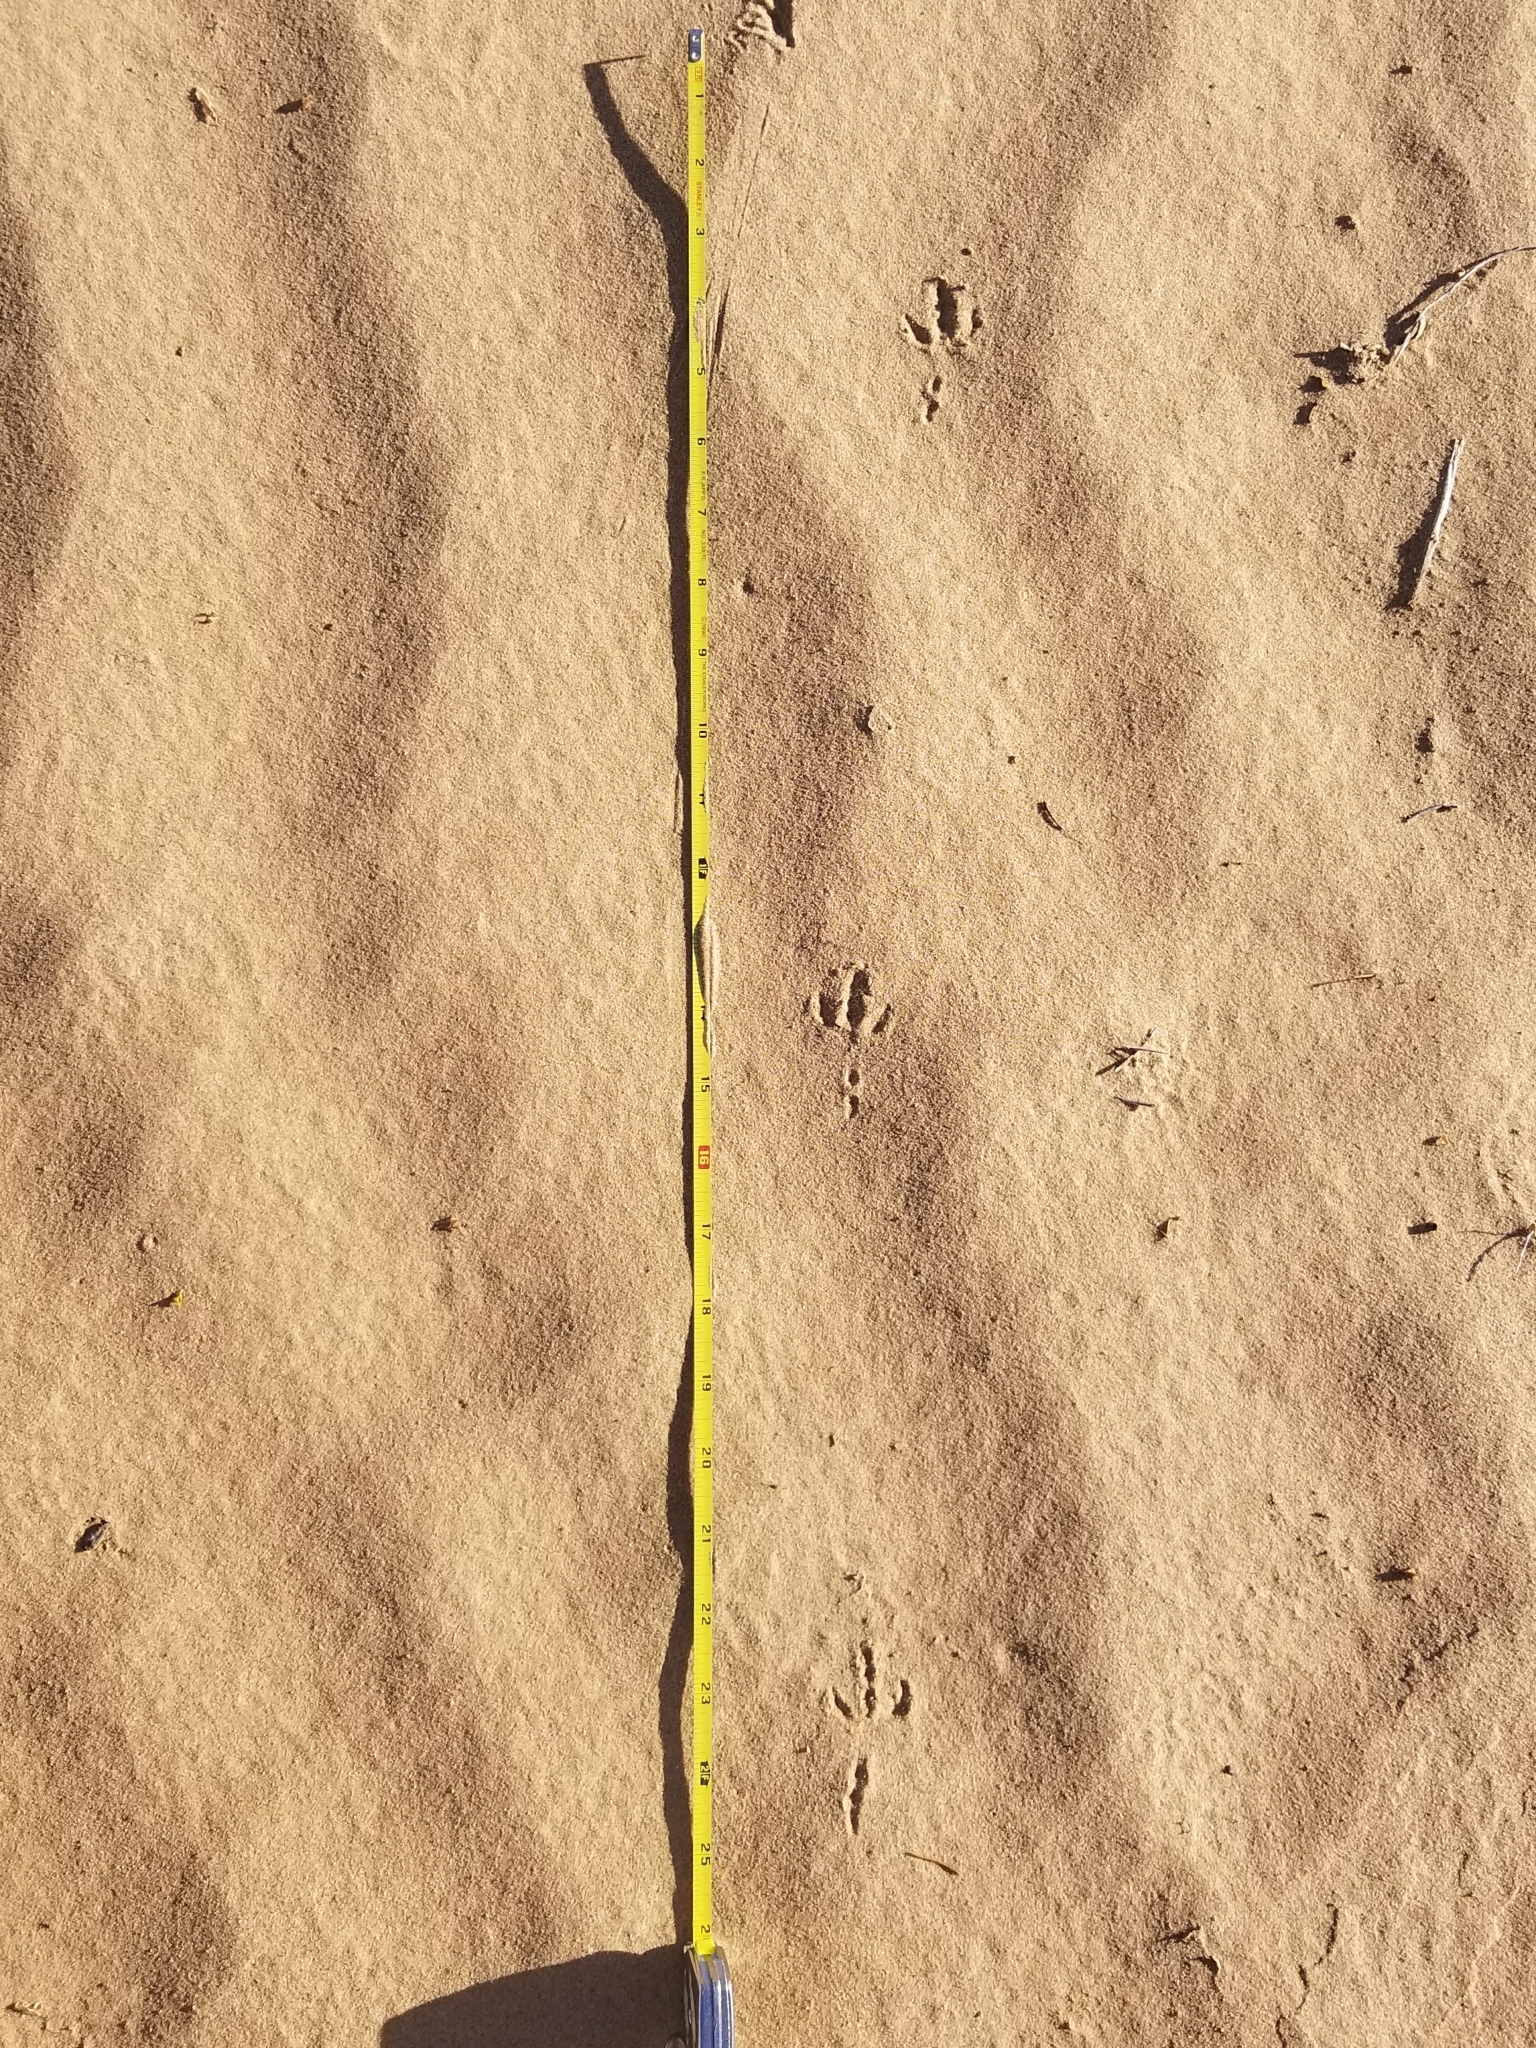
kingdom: Animalia
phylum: Chordata
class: Aves
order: Passeriformes
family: Mimidae
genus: Toxostoma
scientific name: Toxostoma lecontei
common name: Le conte's thrasher
